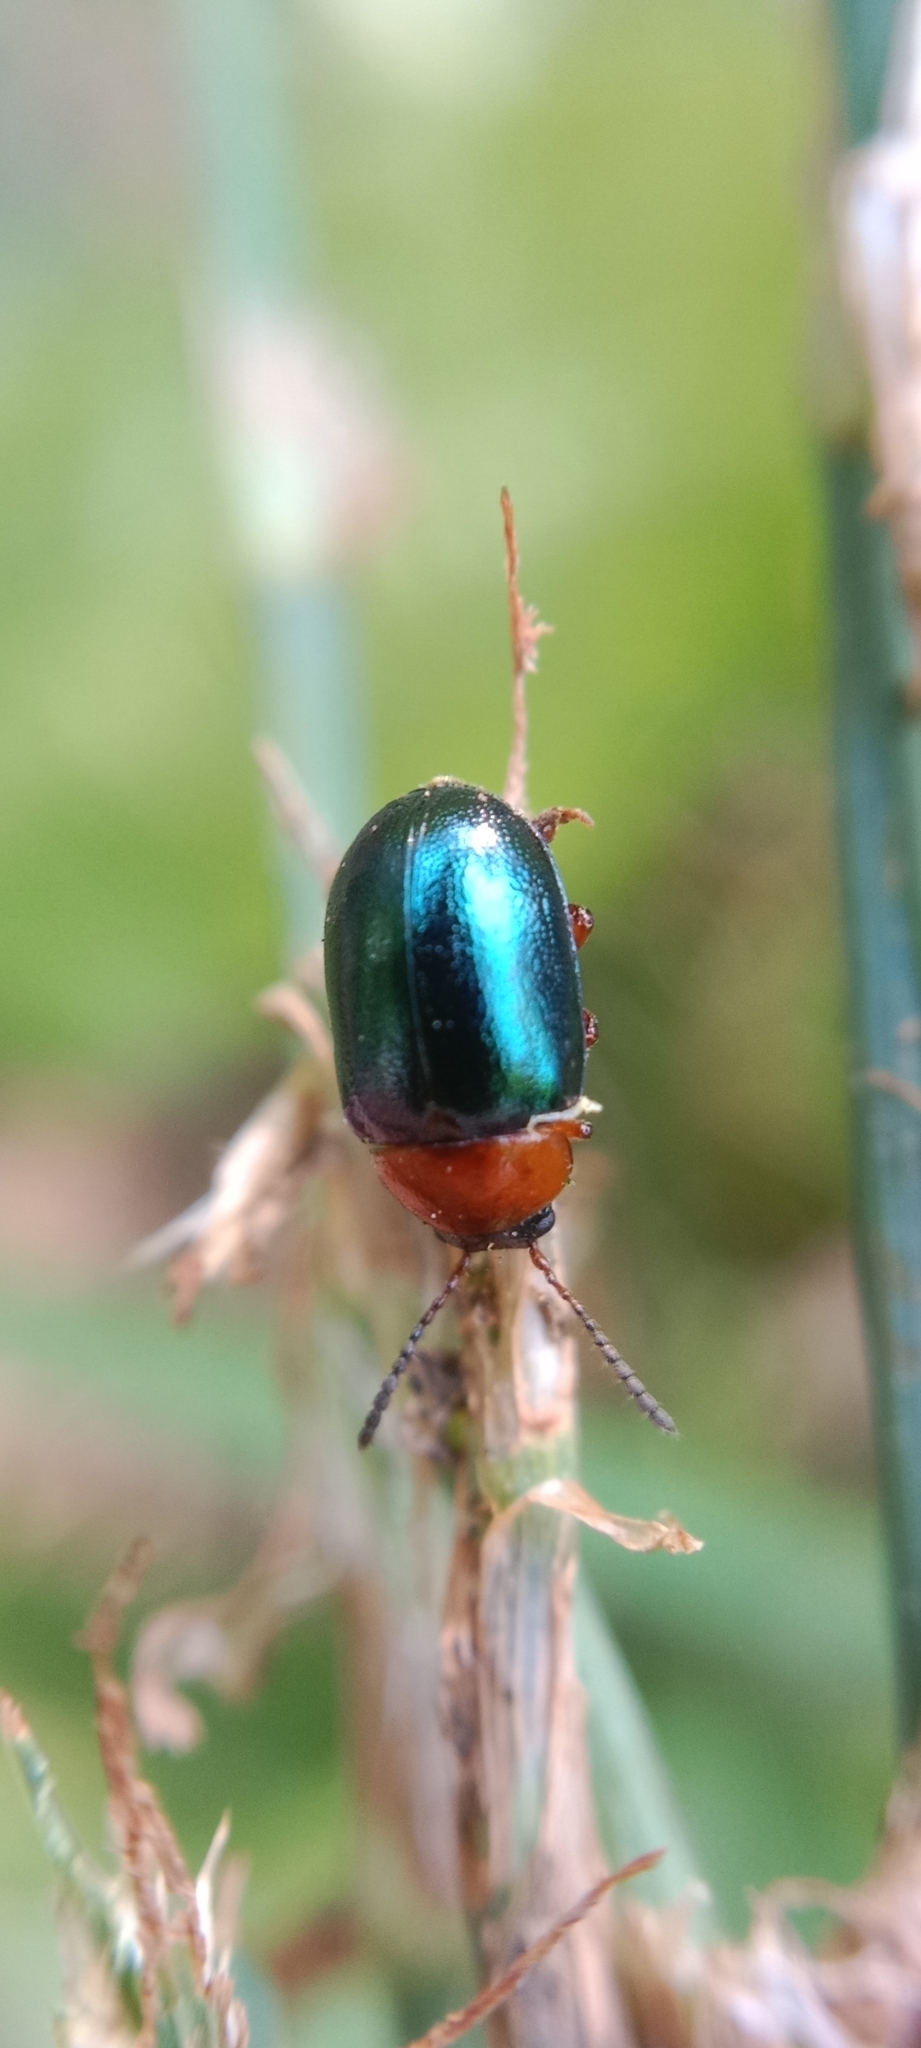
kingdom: Animalia
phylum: Arthropoda
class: Insecta
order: Coleoptera
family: Chrysomelidae
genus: Gastrophysa
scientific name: Gastrophysa polygoni
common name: Knotweed leaf beetle
